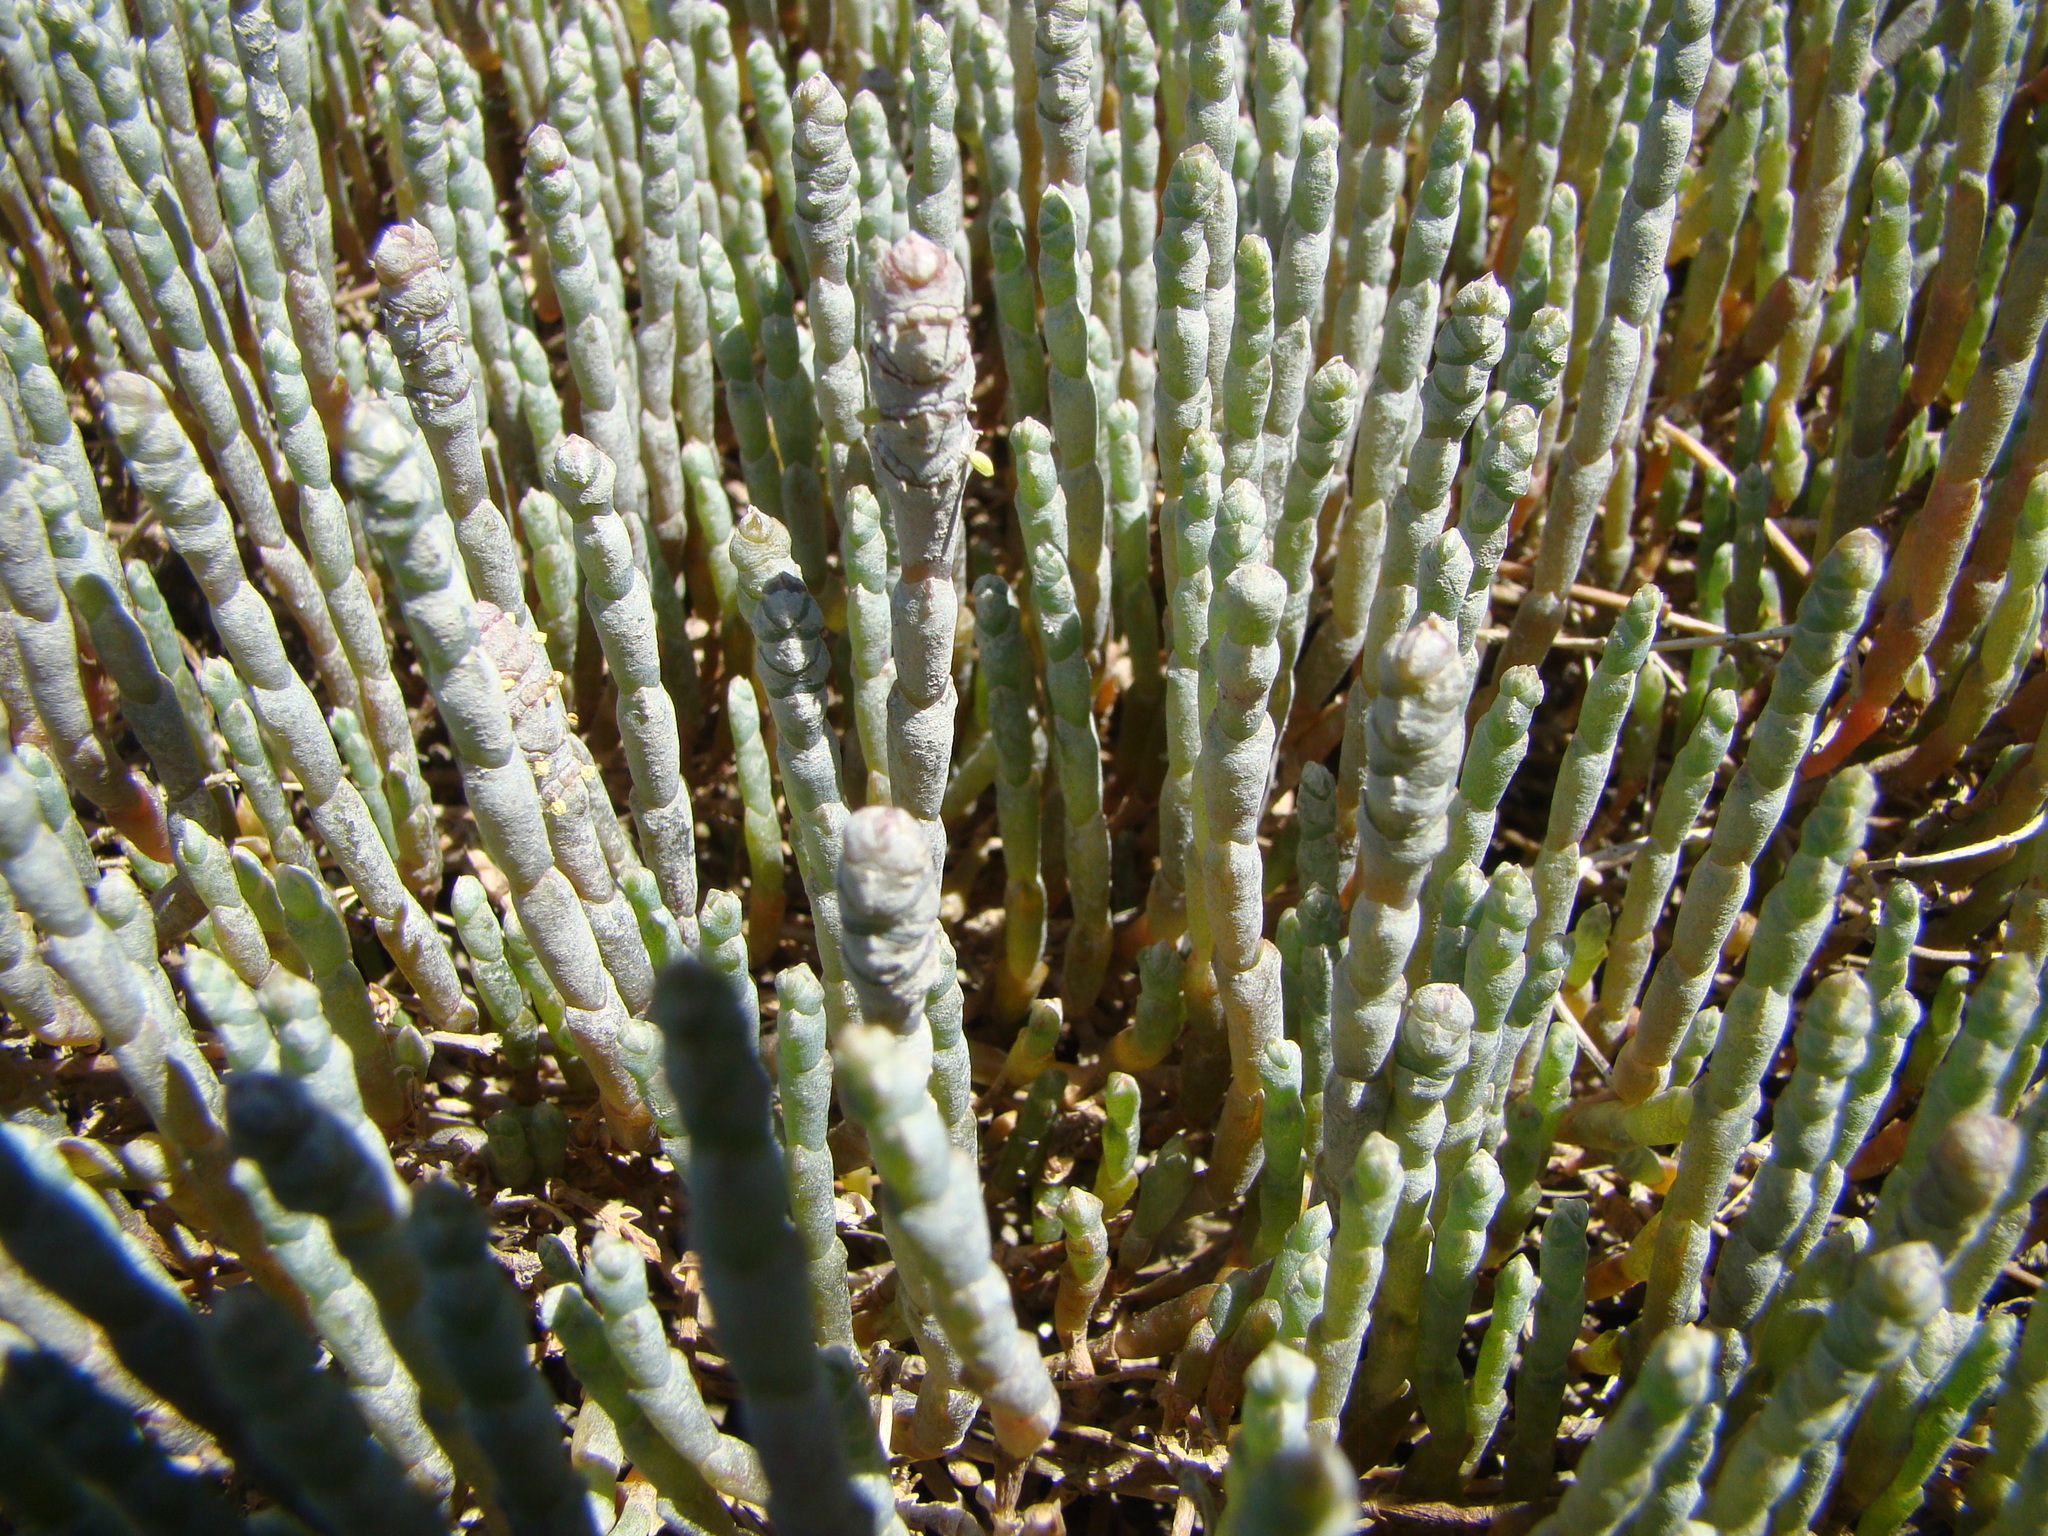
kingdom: Plantae
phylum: Tracheophyta
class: Magnoliopsida
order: Caryophyllales
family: Amaranthaceae
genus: Salicornia
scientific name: Salicornia quinqueflora
